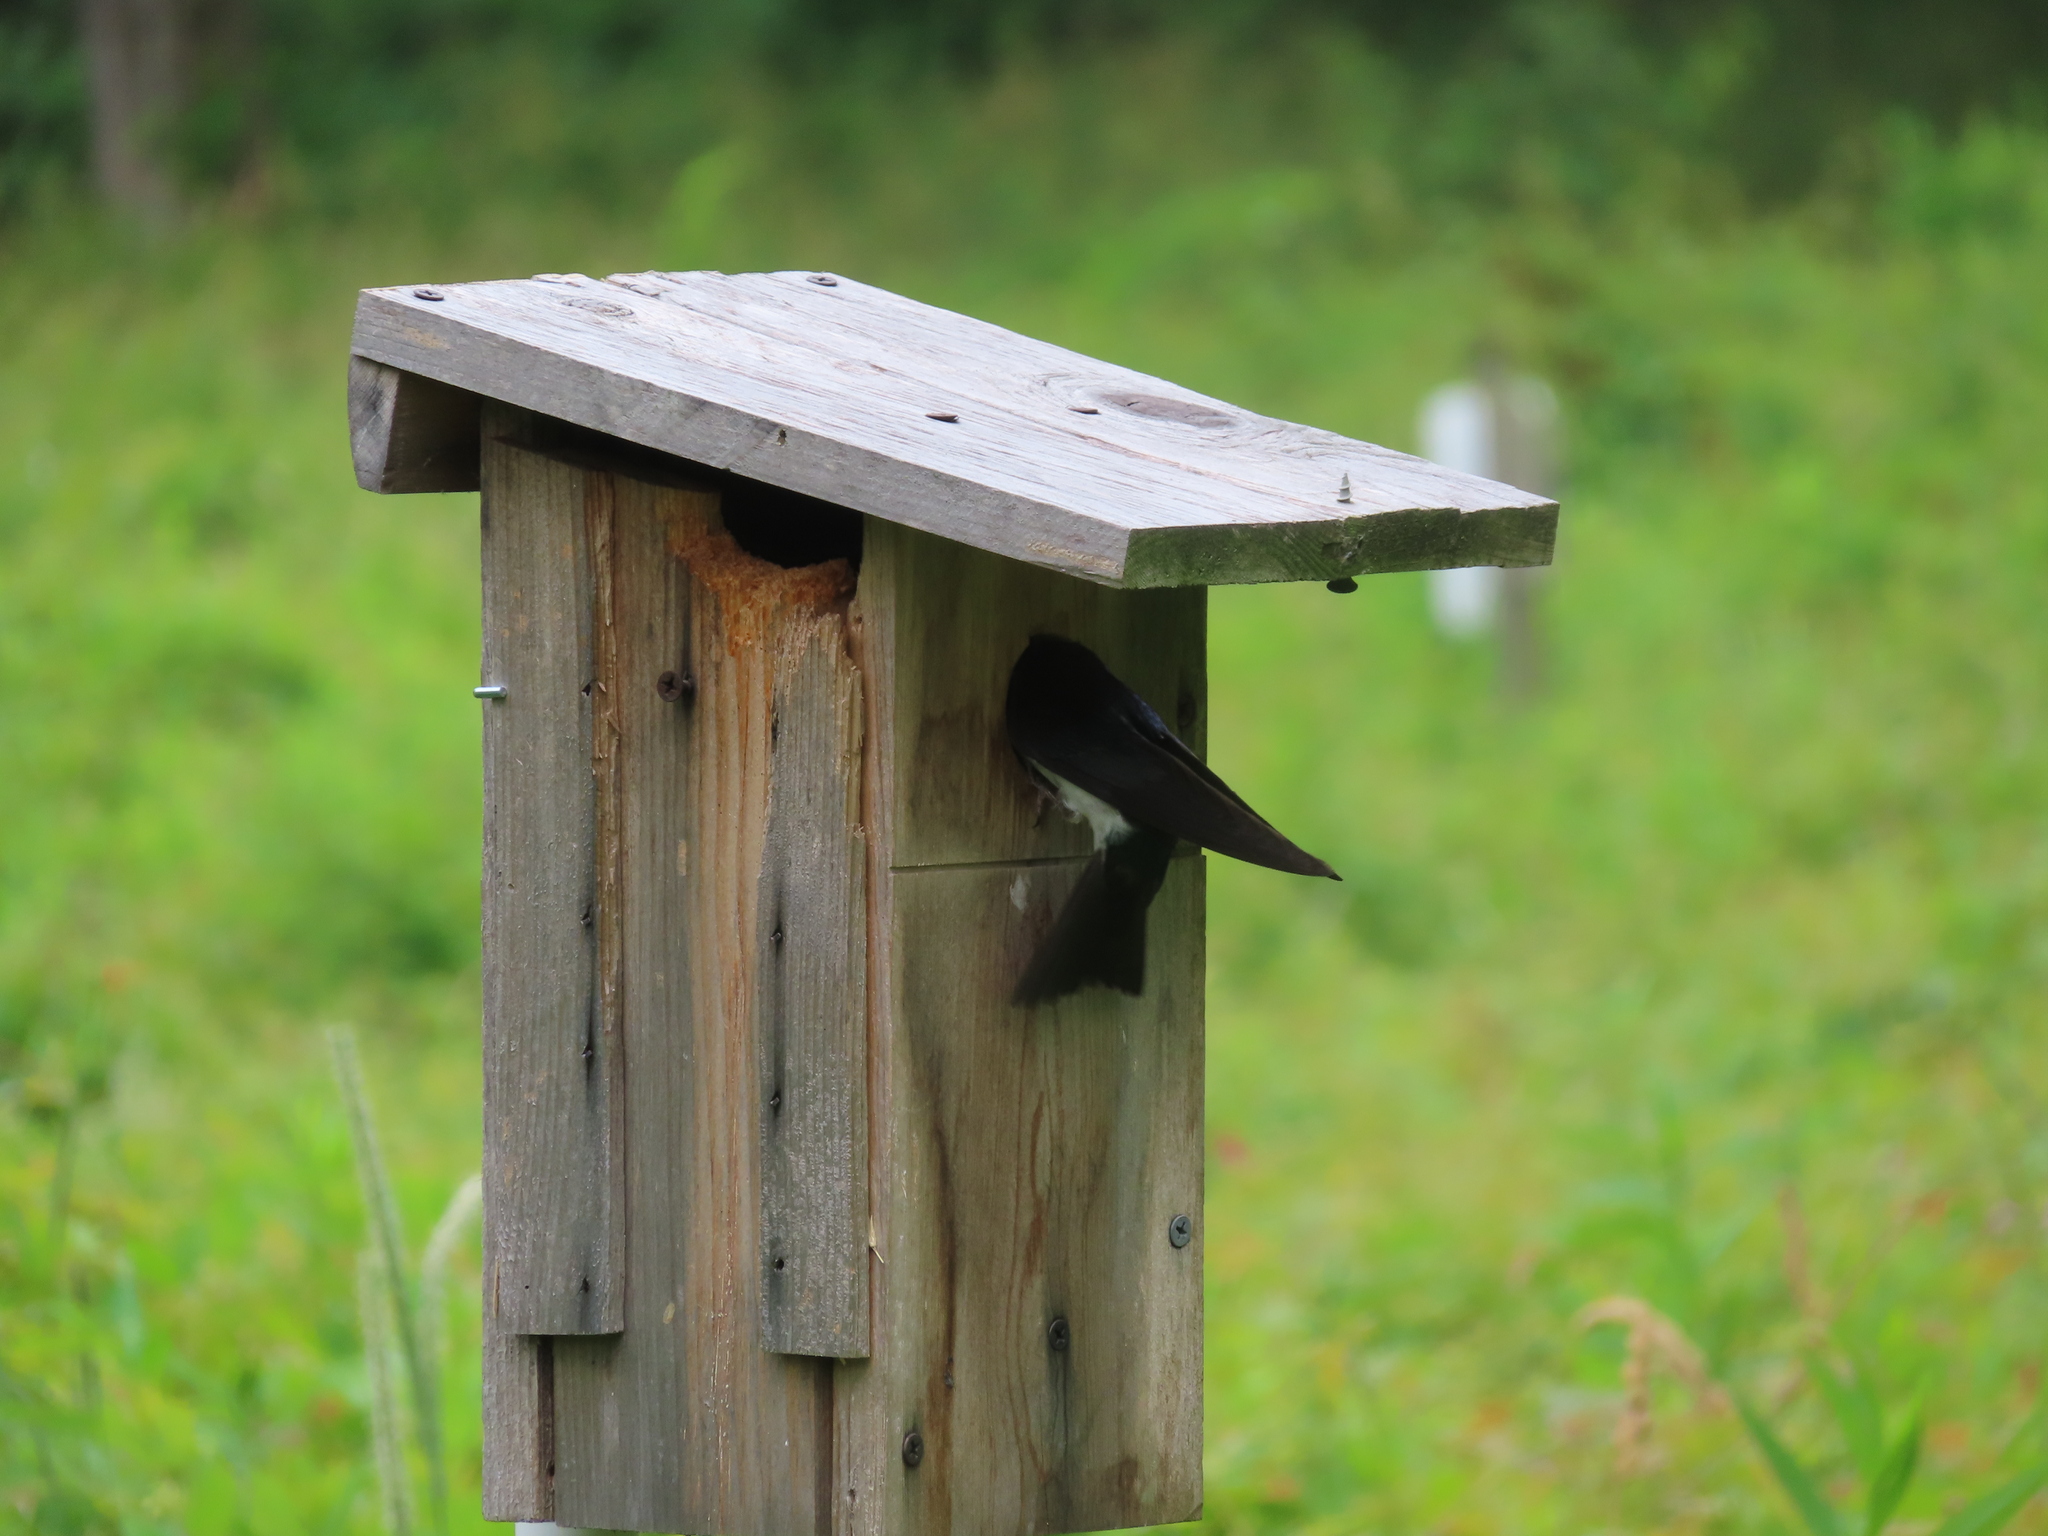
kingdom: Animalia
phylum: Chordata
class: Aves
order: Passeriformes
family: Hirundinidae
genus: Tachycineta
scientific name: Tachycineta bicolor
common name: Tree swallow
